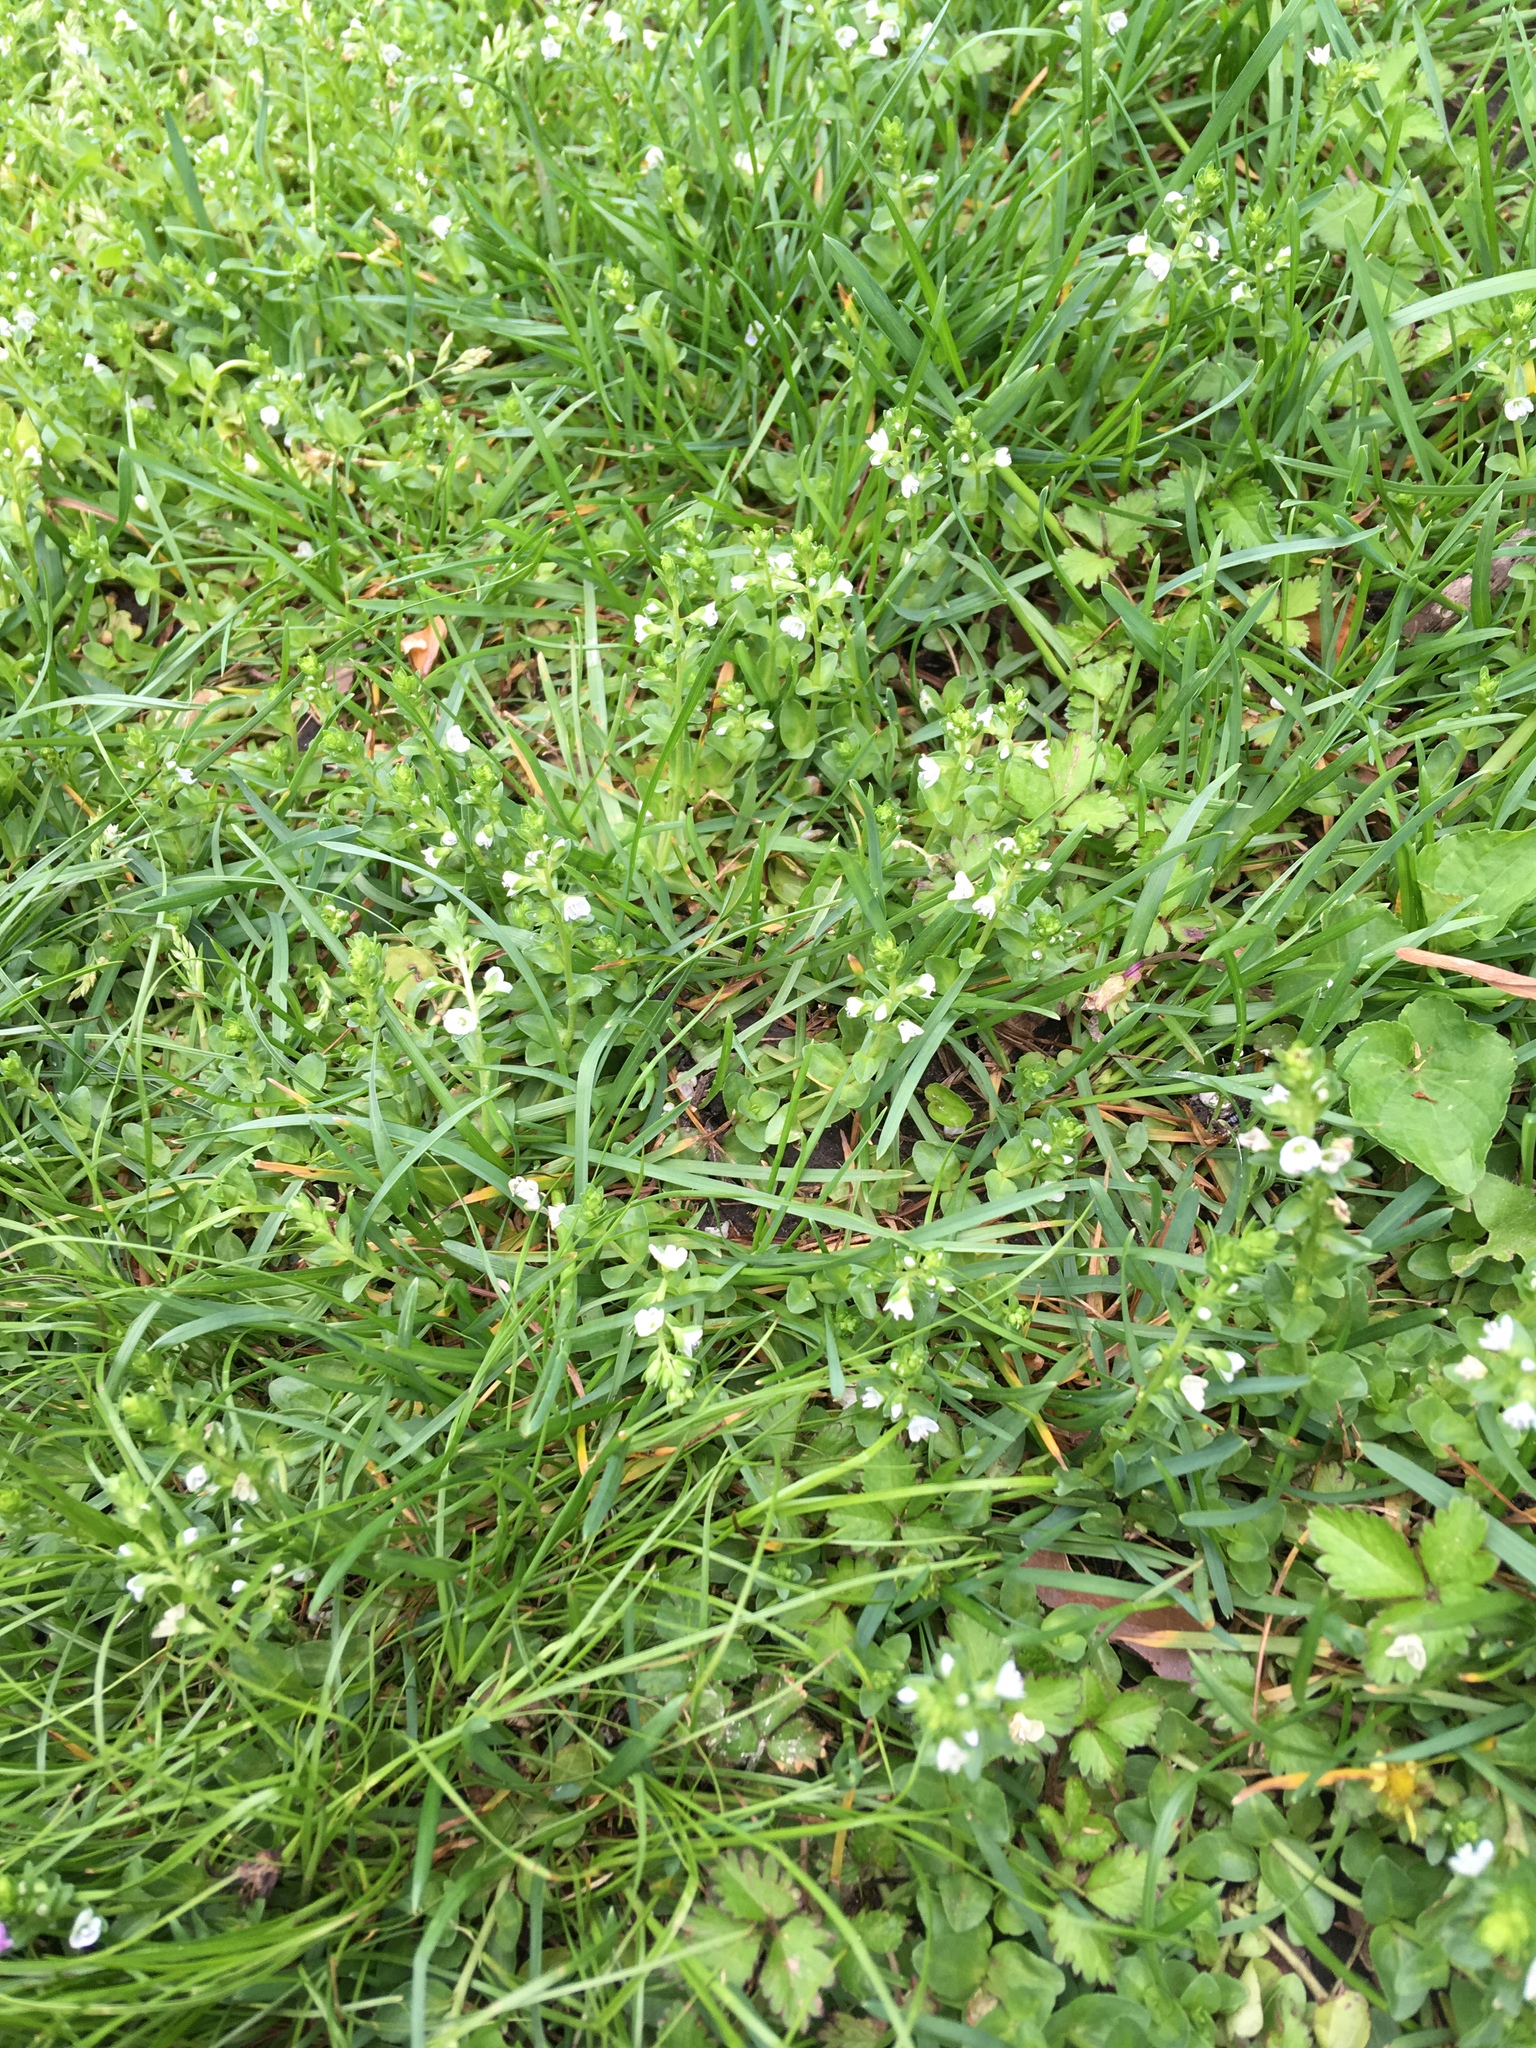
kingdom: Plantae
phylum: Tracheophyta
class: Magnoliopsida
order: Lamiales
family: Plantaginaceae
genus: Veronica
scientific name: Veronica serpyllifolia
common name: Thyme-leaved speedwell
